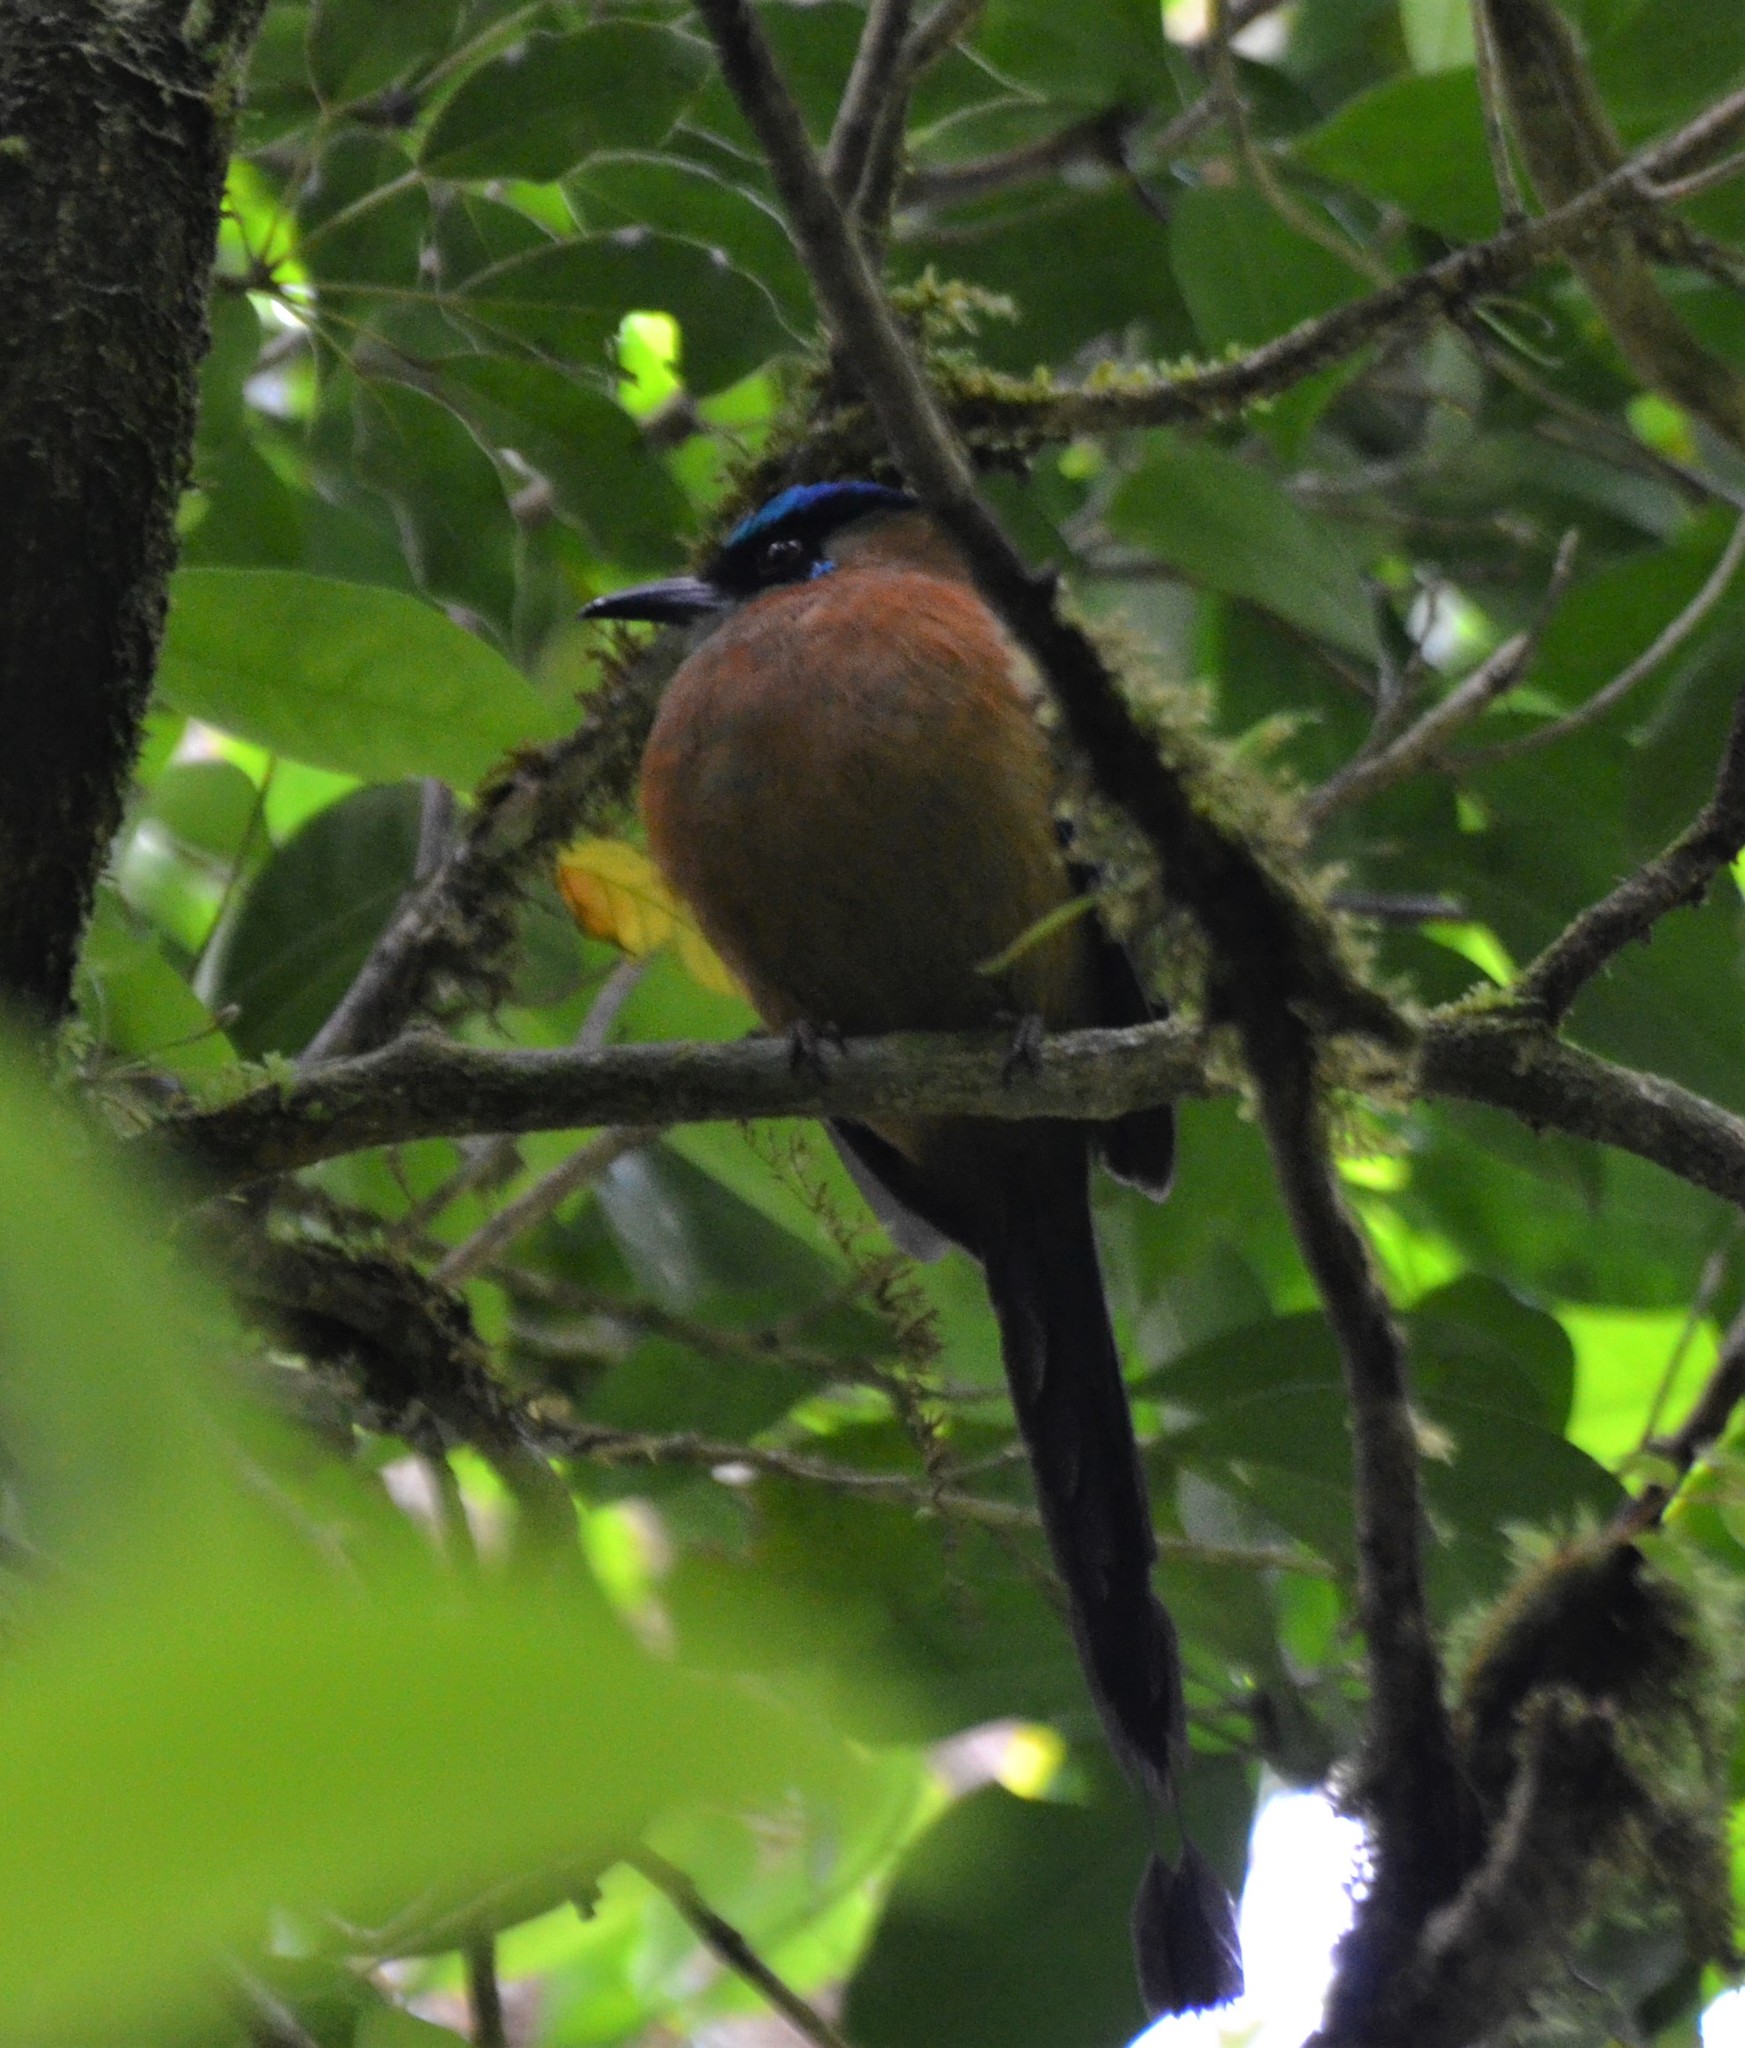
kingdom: Animalia
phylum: Chordata
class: Aves
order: Coraciiformes
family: Momotidae
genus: Momotus
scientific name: Momotus lessonii
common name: Lesson's motmot
